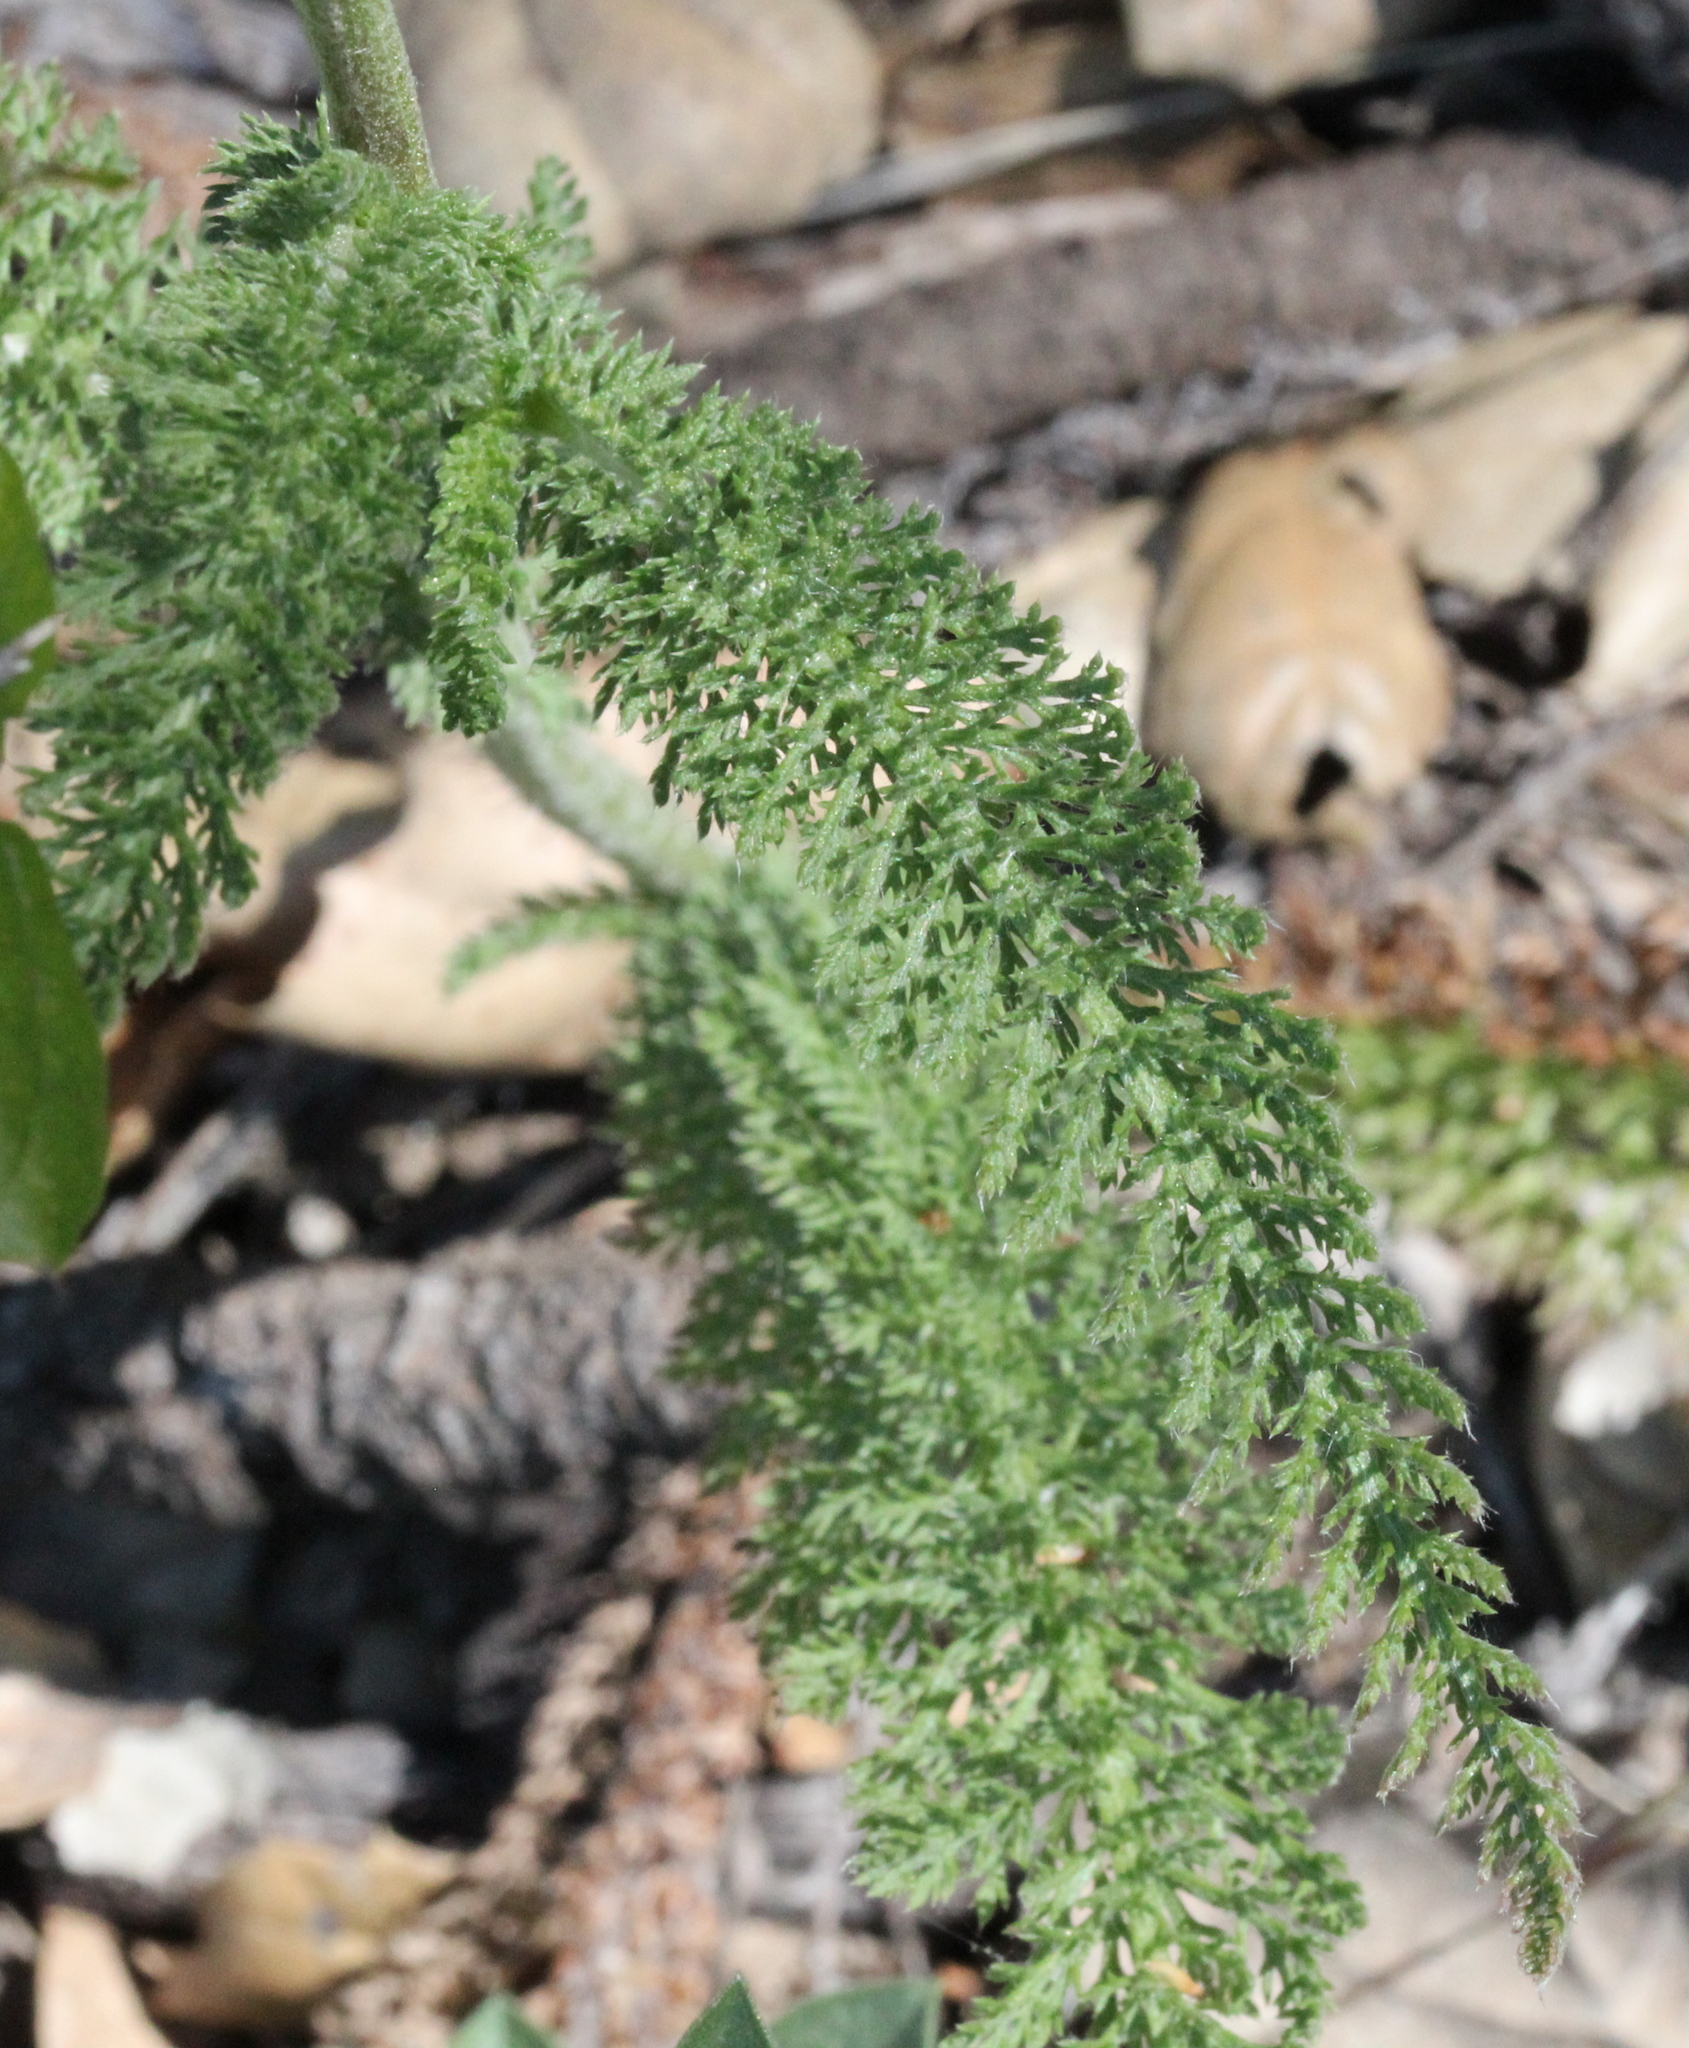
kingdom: Plantae
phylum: Tracheophyta
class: Magnoliopsida
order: Asterales
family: Asteraceae
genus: Achillea
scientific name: Achillea millefolium
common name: Yarrow
